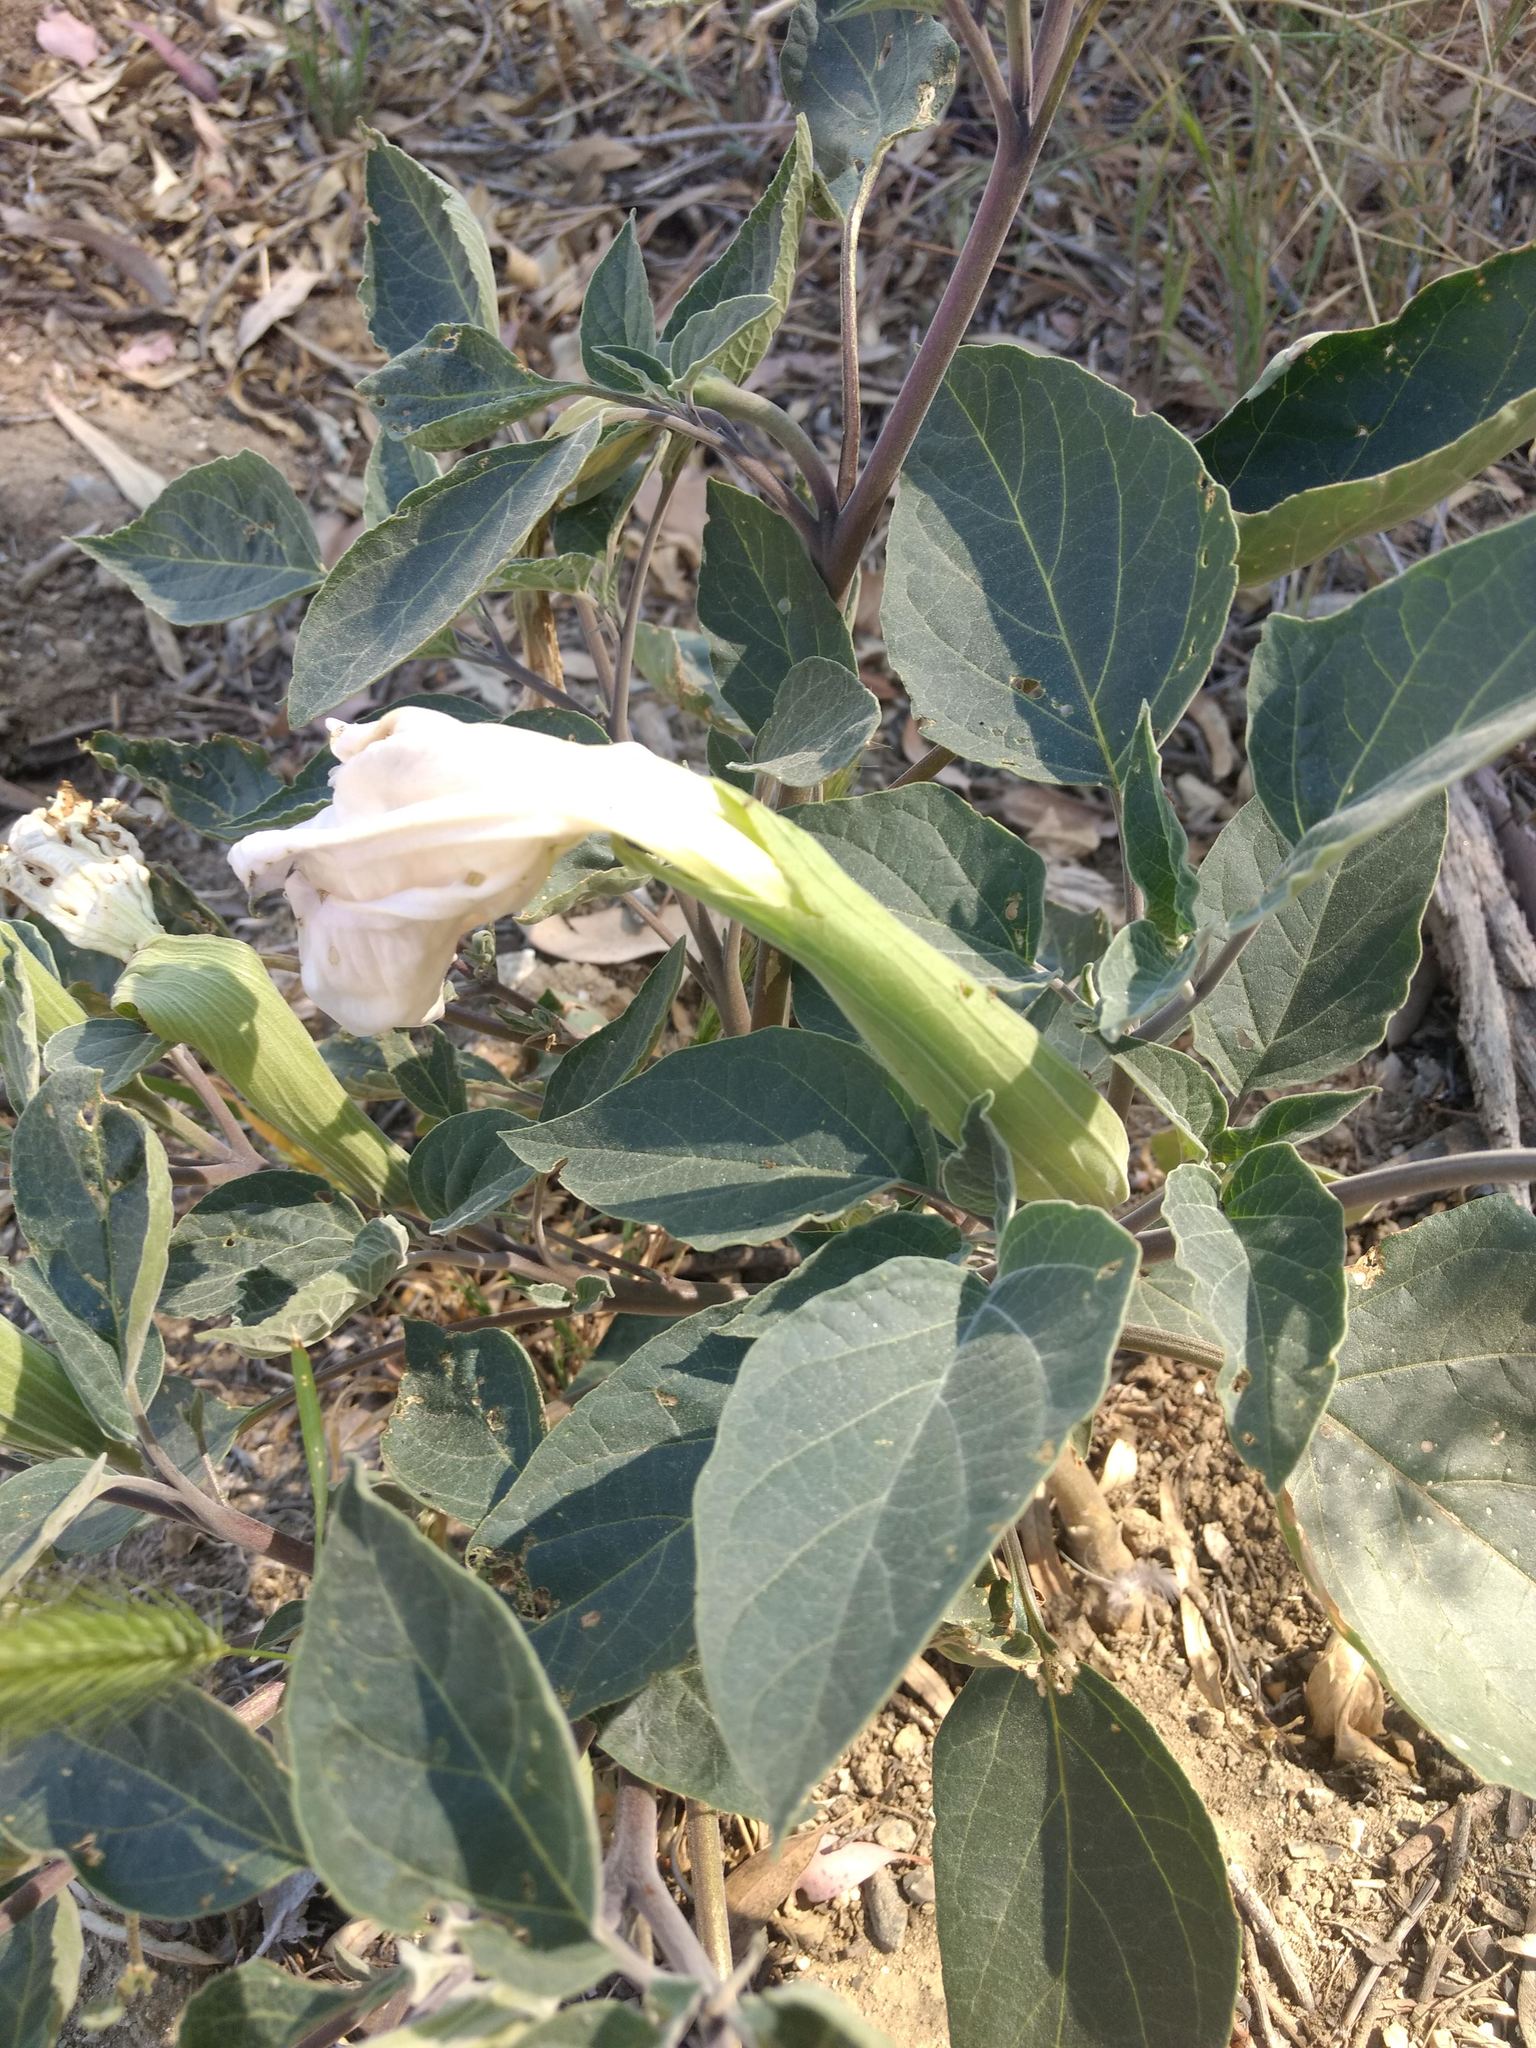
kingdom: Plantae
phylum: Tracheophyta
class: Magnoliopsida
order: Solanales
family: Solanaceae
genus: Datura
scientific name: Datura wrightii
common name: Sacred thorn-apple
